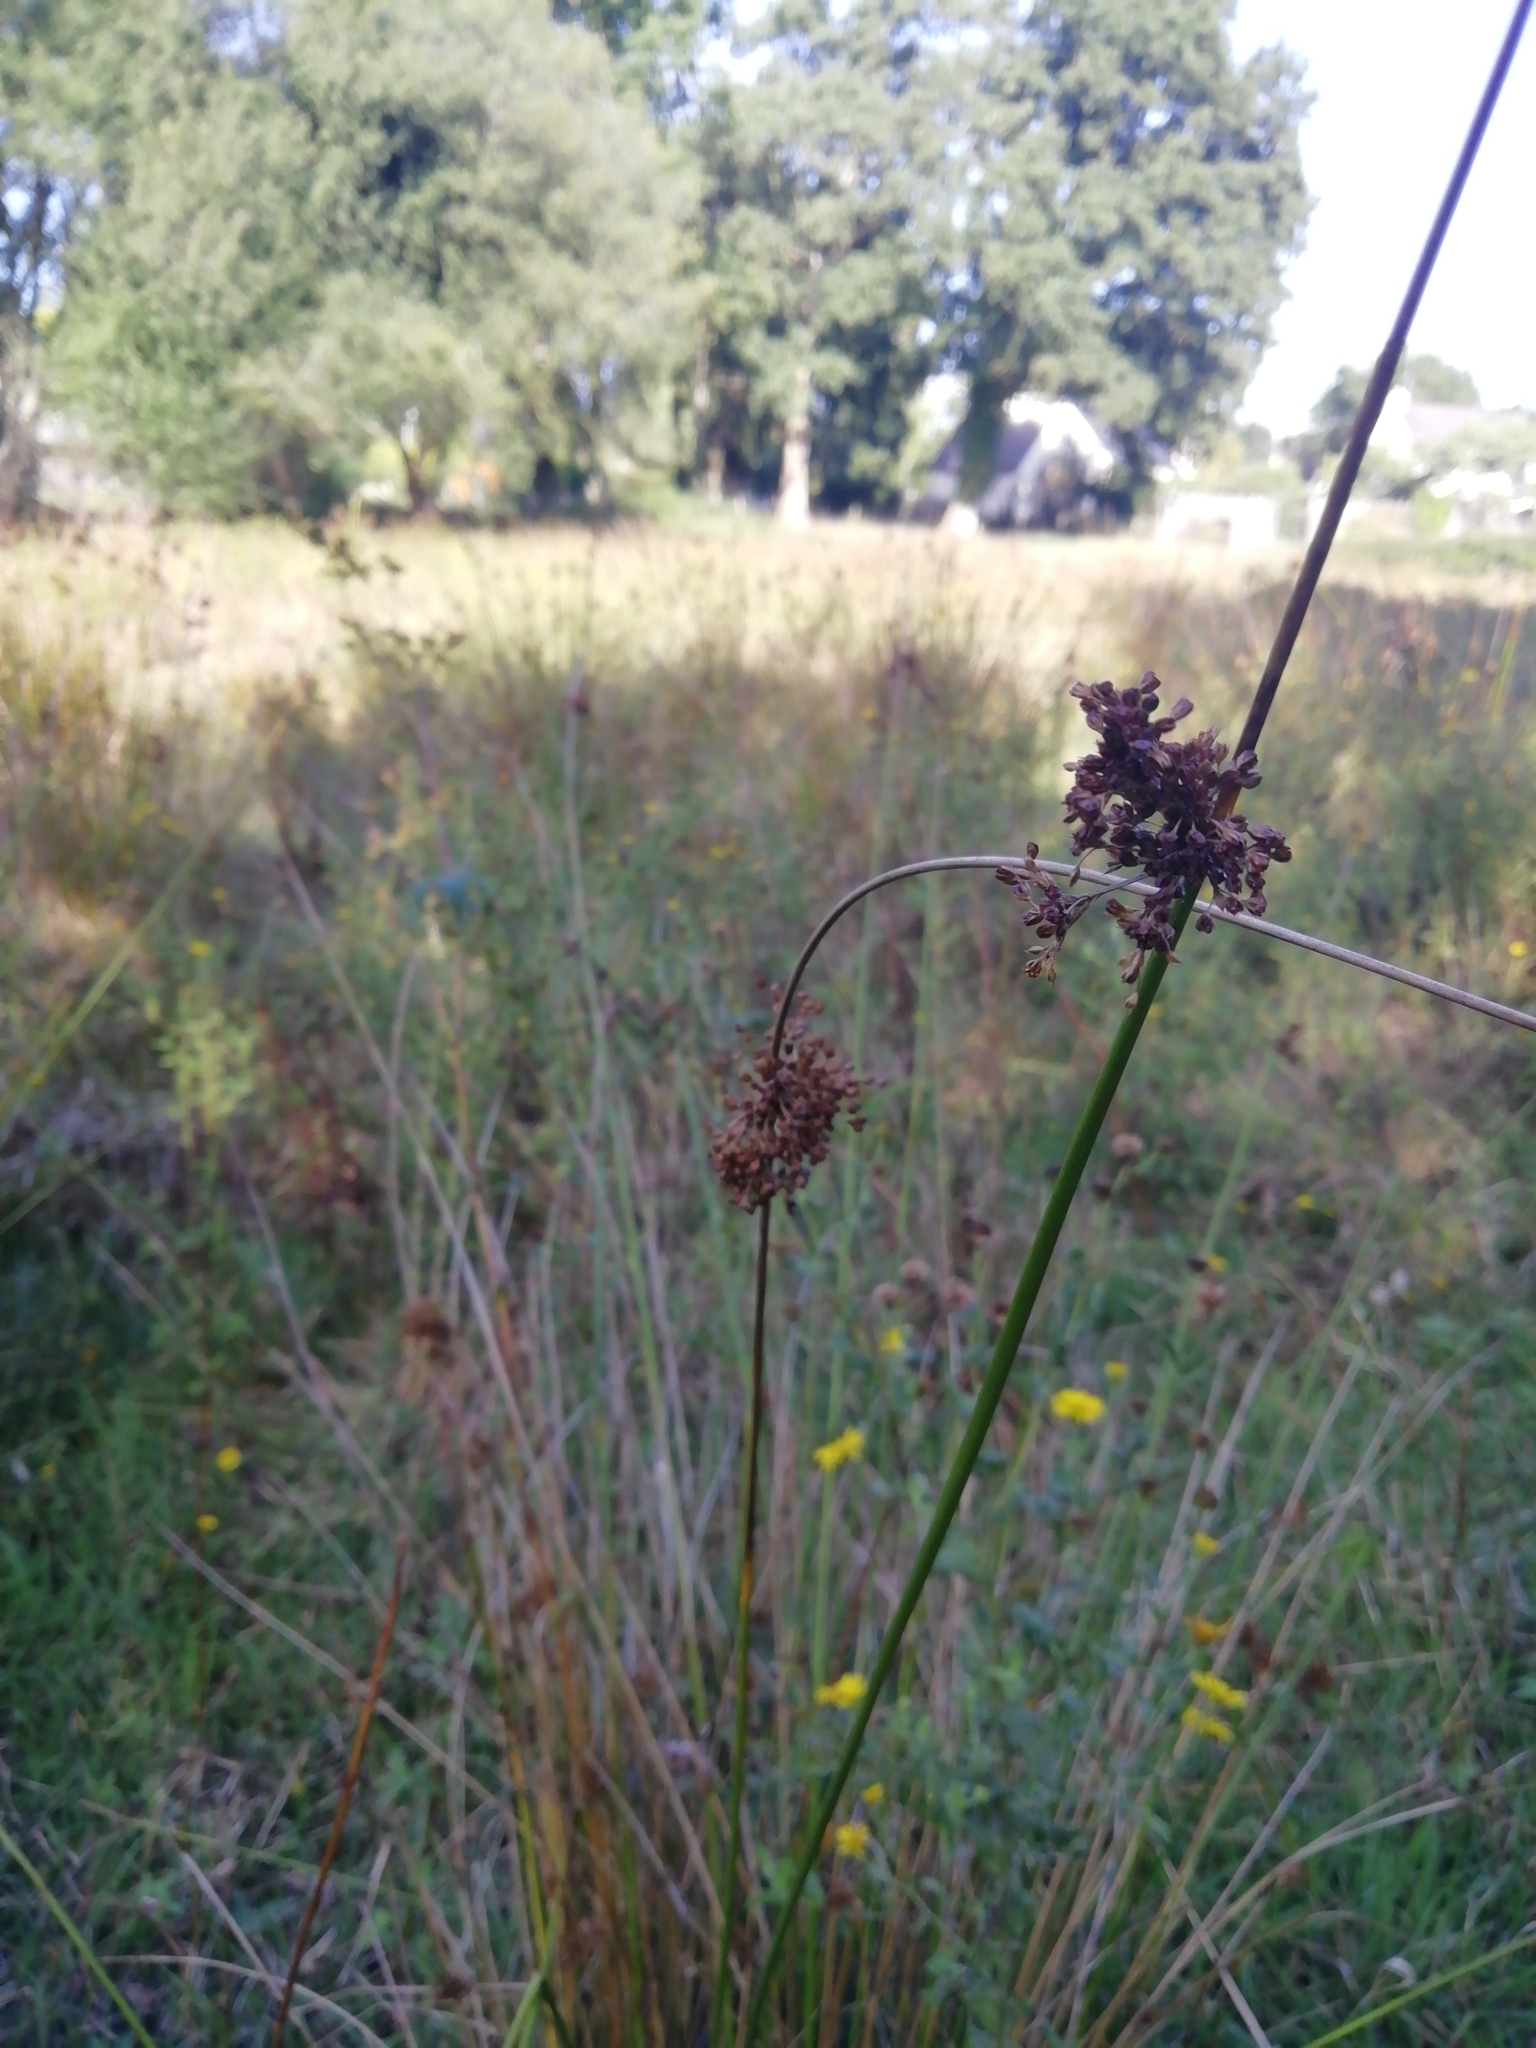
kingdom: Plantae
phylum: Tracheophyta
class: Liliopsida
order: Poales
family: Juncaceae
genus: Juncus
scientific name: Juncus effusus
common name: Soft rush
